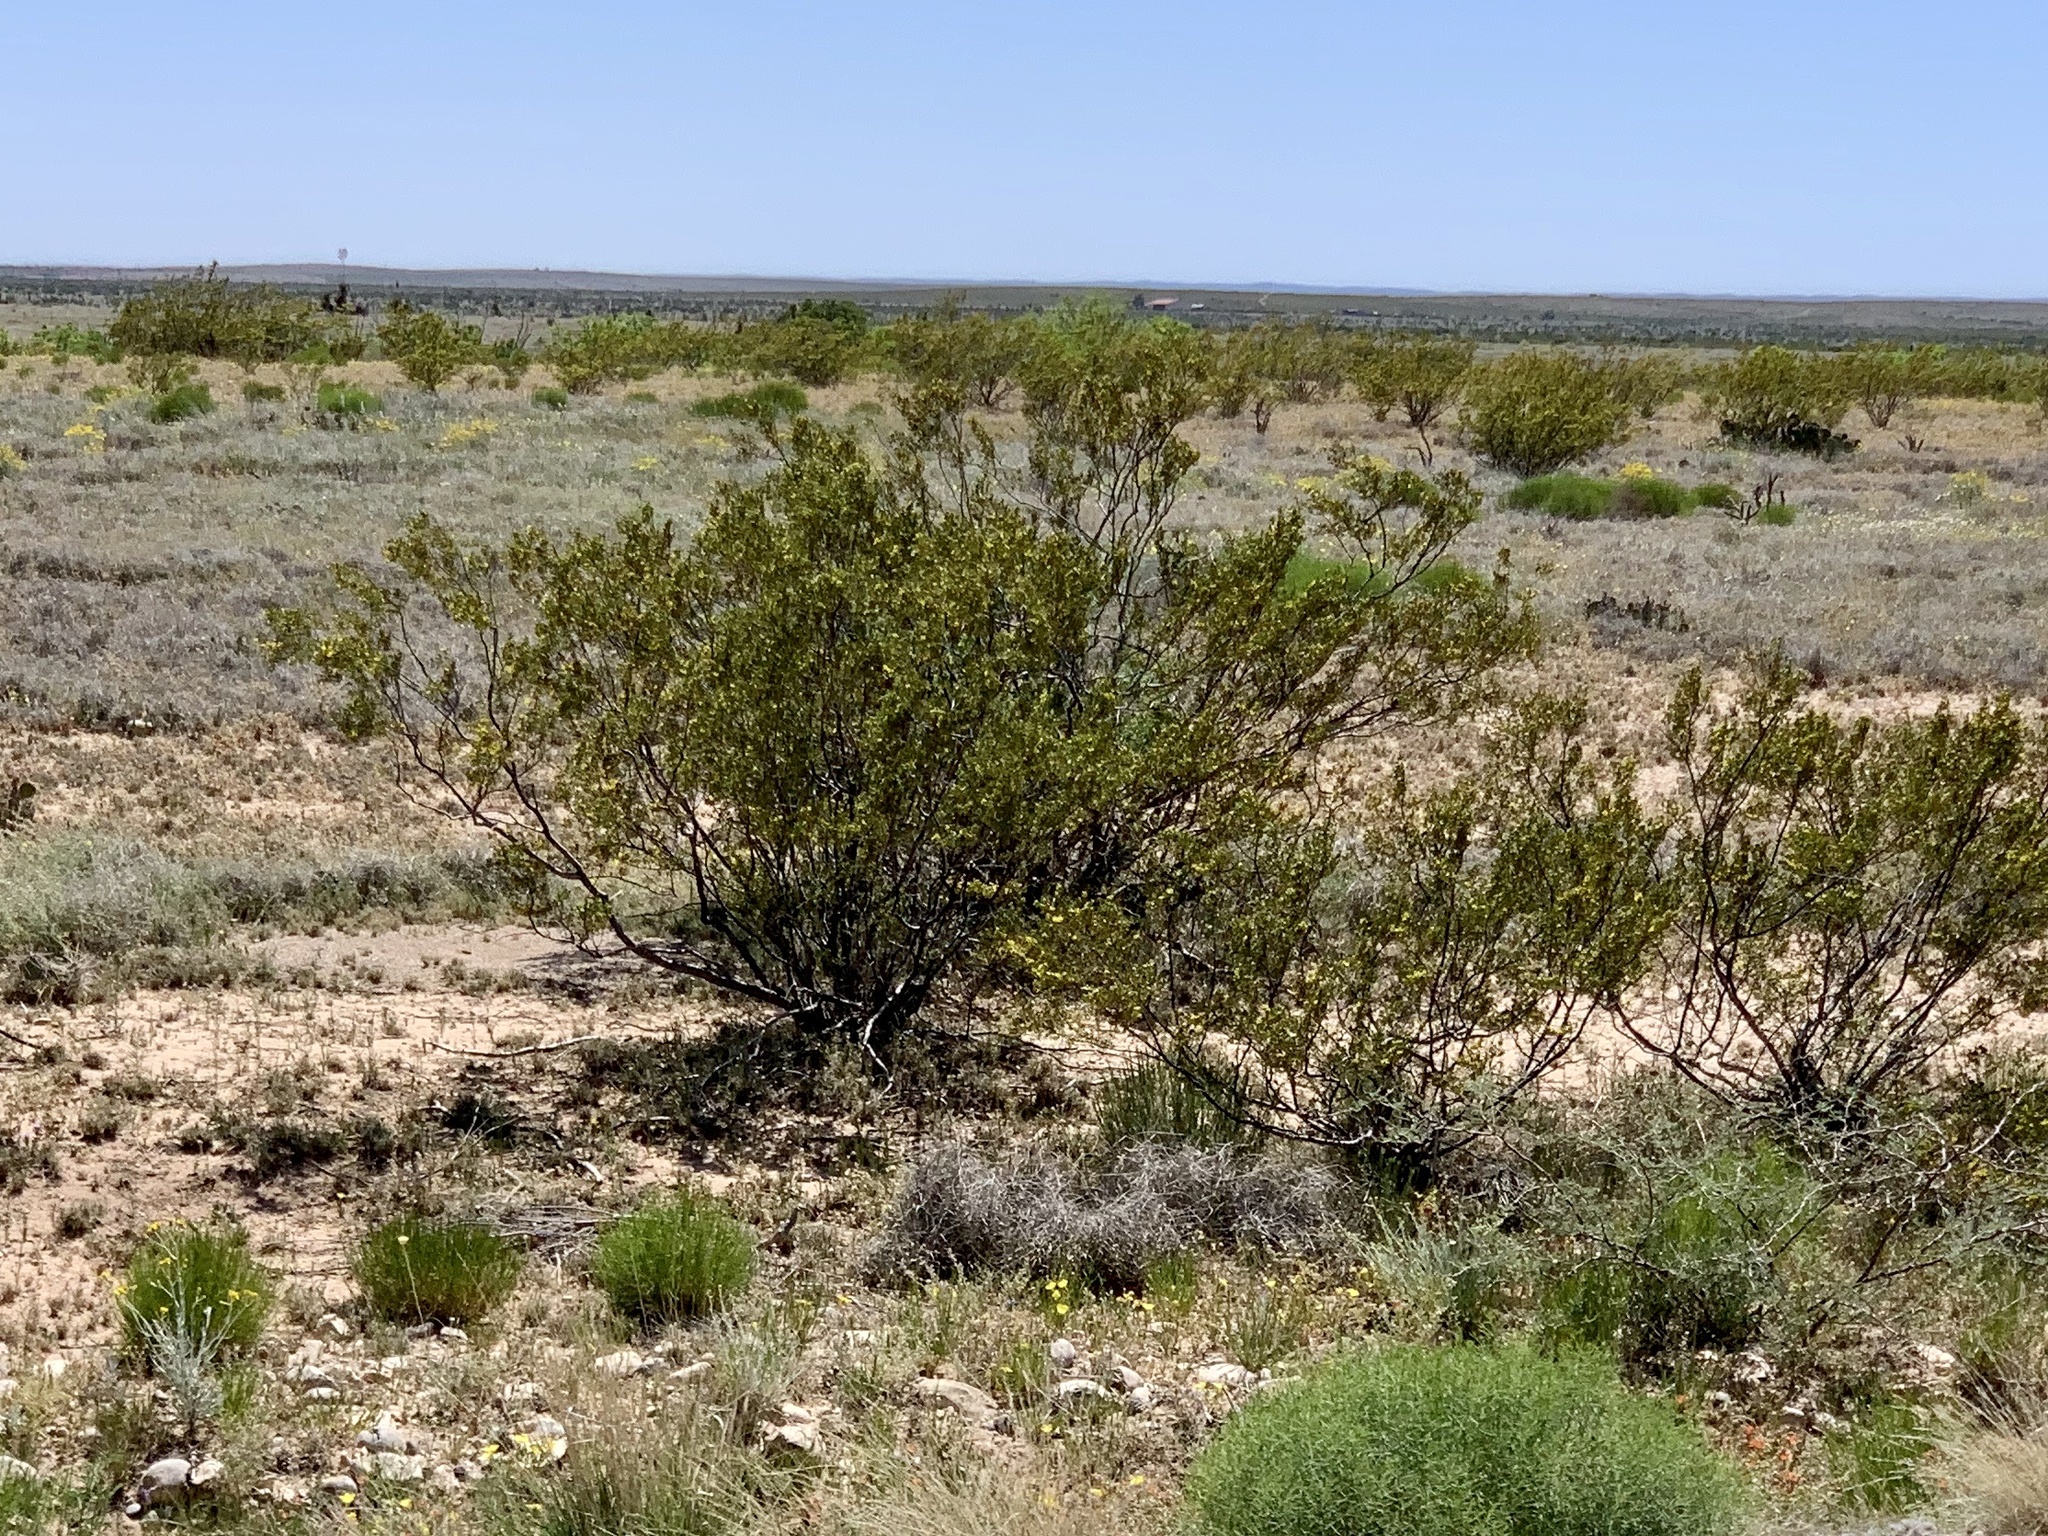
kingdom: Plantae
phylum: Tracheophyta
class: Magnoliopsida
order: Zygophyllales
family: Zygophyllaceae
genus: Larrea
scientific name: Larrea tridentata
